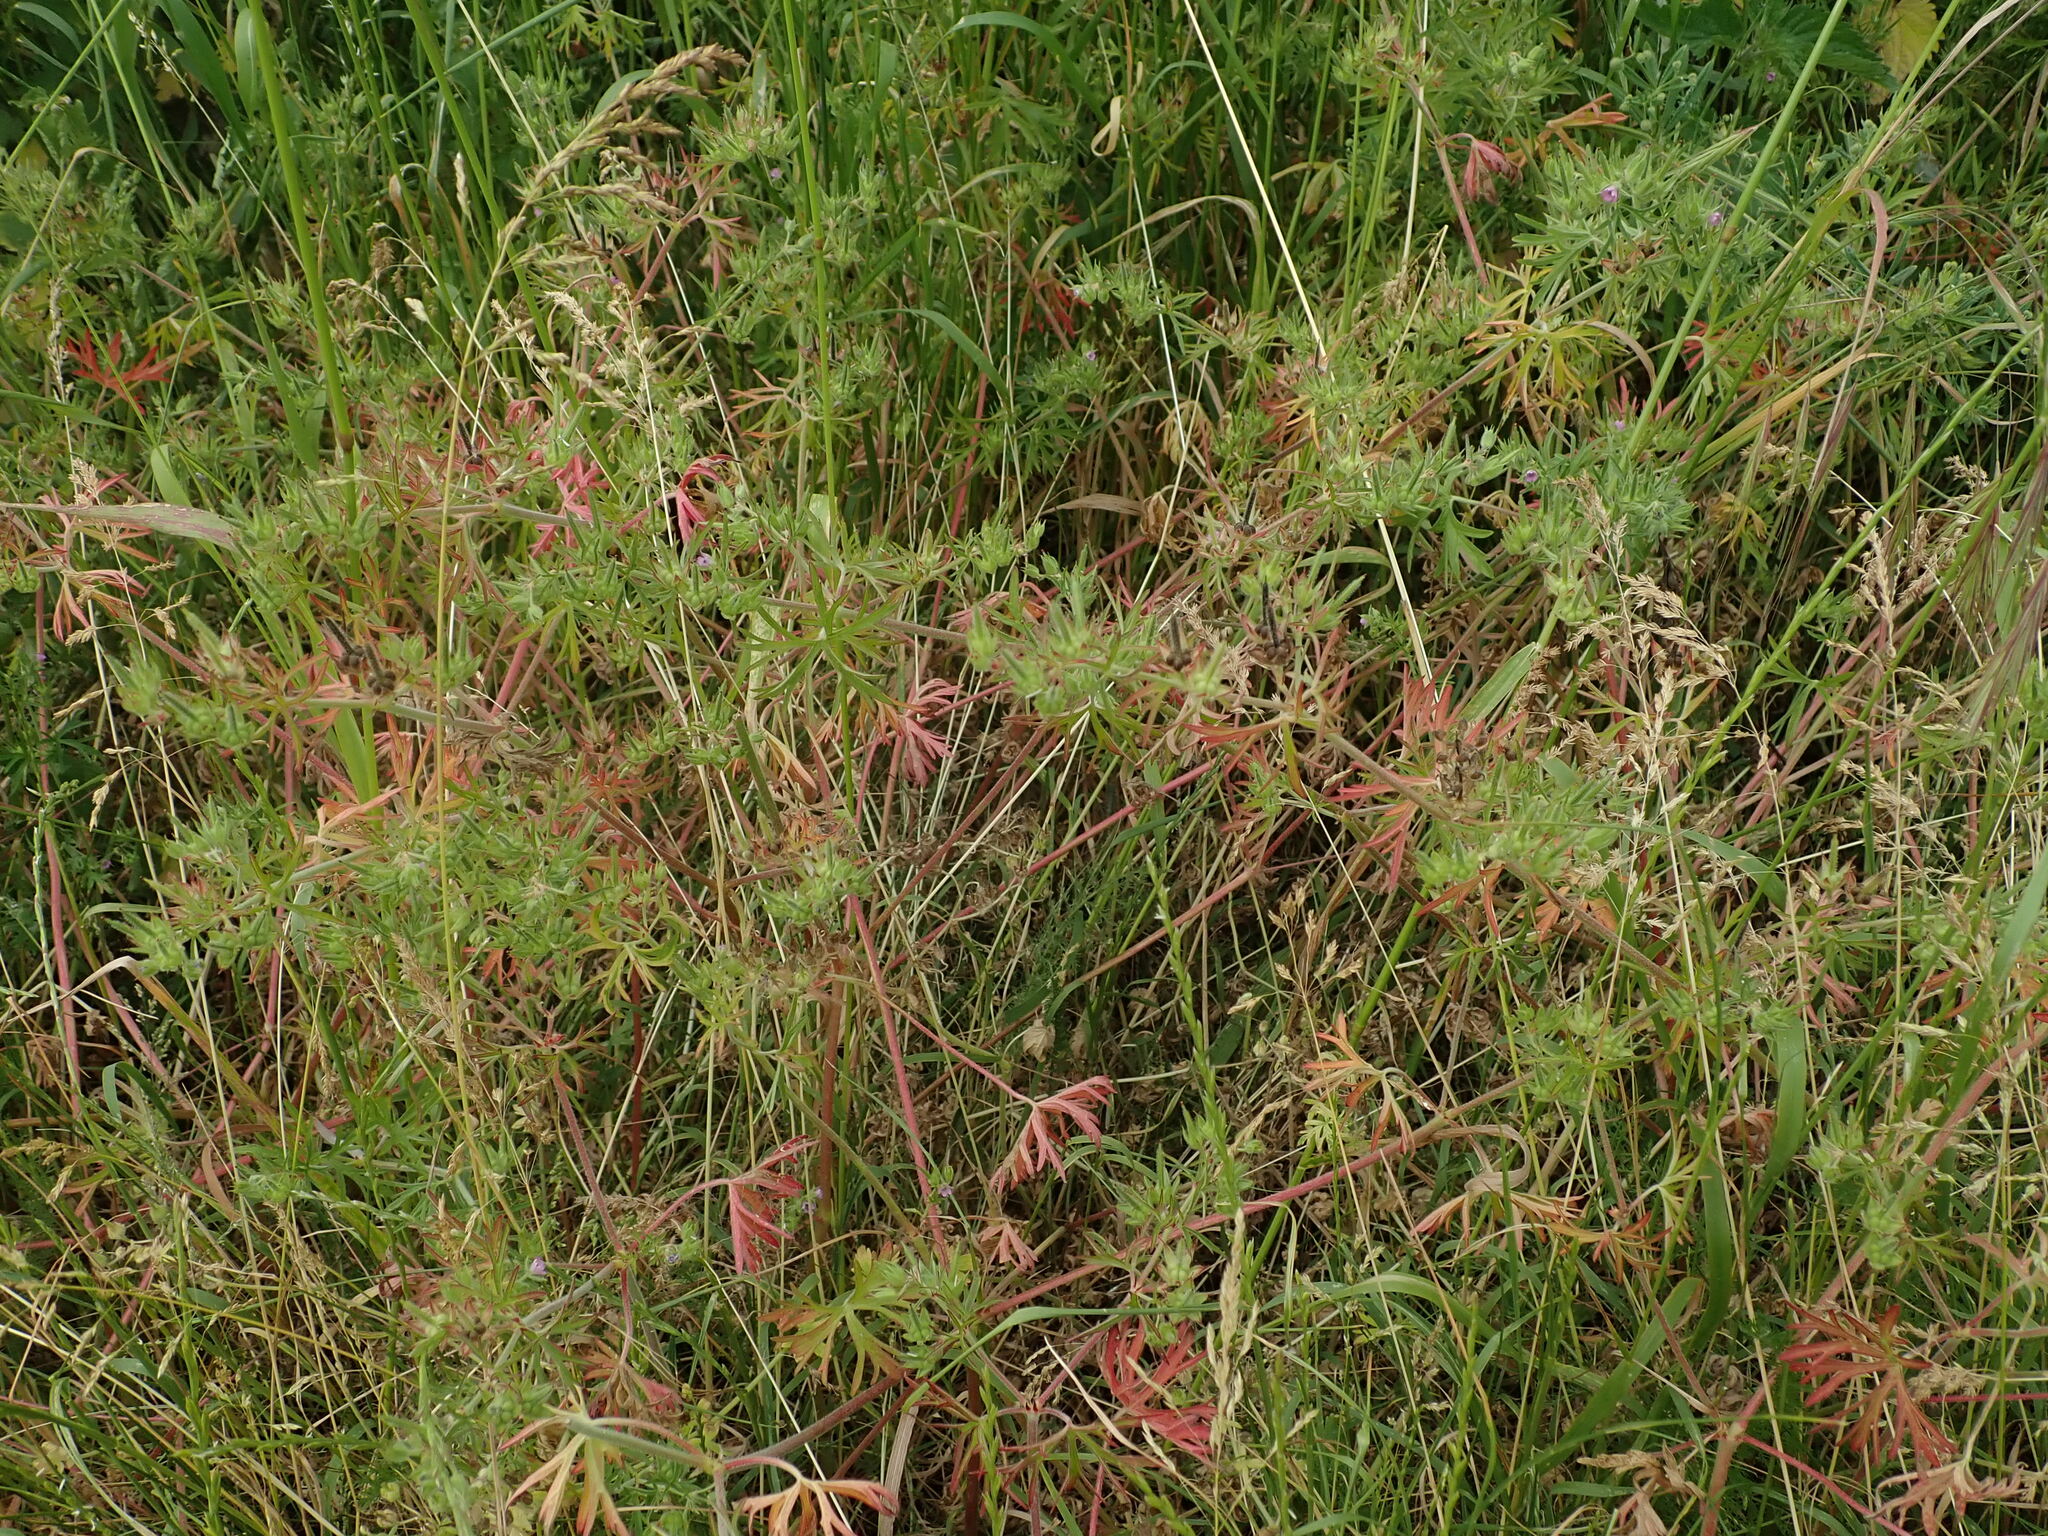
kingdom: Plantae
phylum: Tracheophyta
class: Magnoliopsida
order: Geraniales
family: Geraniaceae
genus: Geranium
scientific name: Geranium dissectum
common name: Cut-leaved crane's-bill
